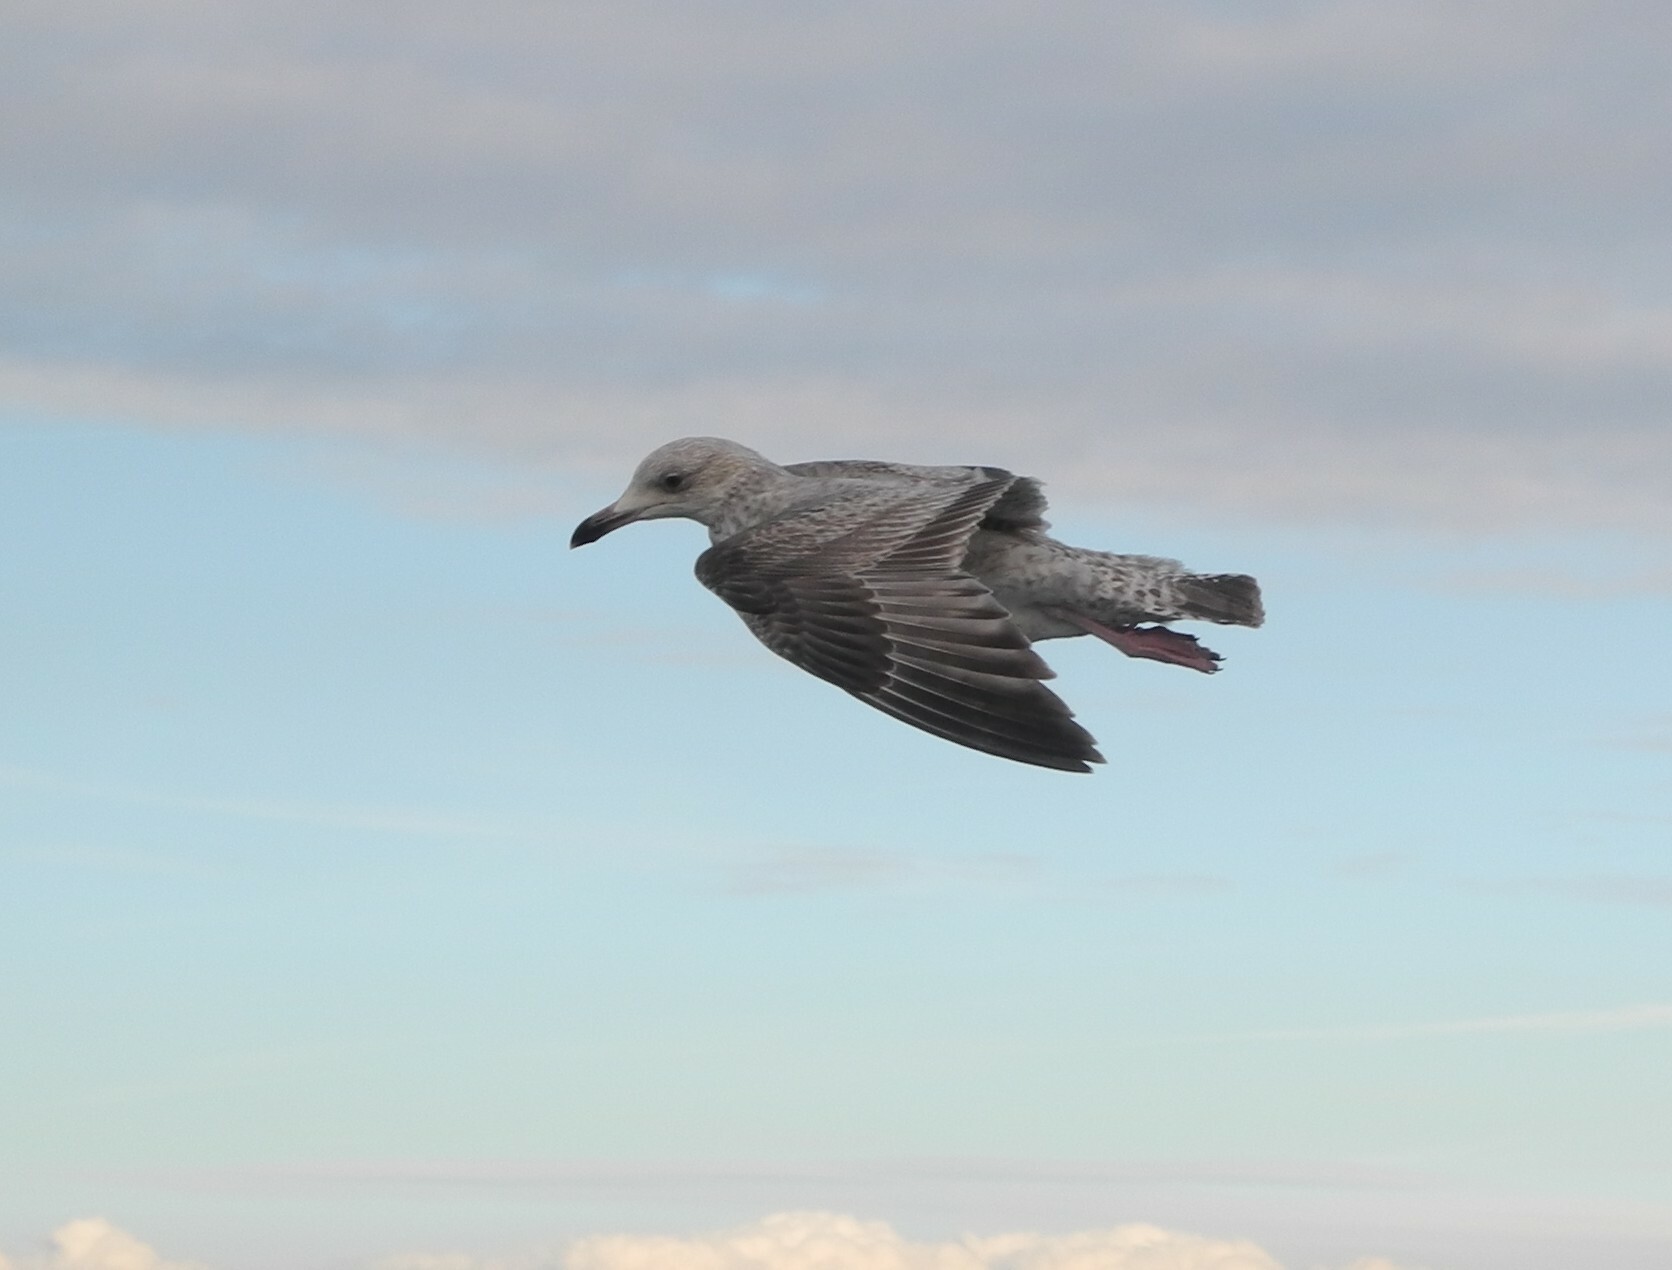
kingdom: Animalia
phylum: Chordata
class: Aves
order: Charadriiformes
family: Laridae
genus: Larus
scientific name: Larus argentatus
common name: Herring gull
